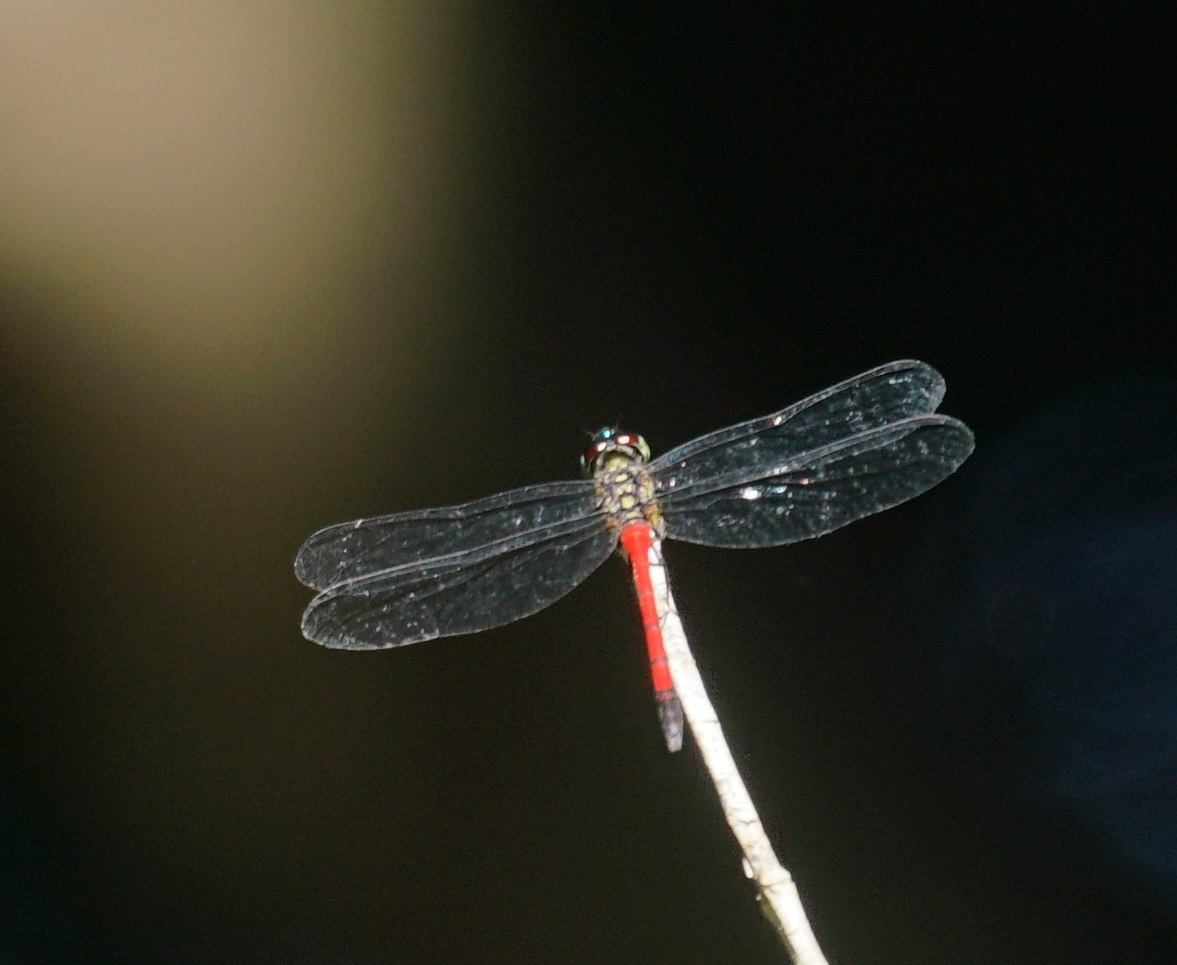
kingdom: Animalia
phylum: Arthropoda
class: Insecta
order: Odonata
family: Libellulidae
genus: Lathrecista
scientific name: Lathrecista asiatica
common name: Scarlet grenadier
